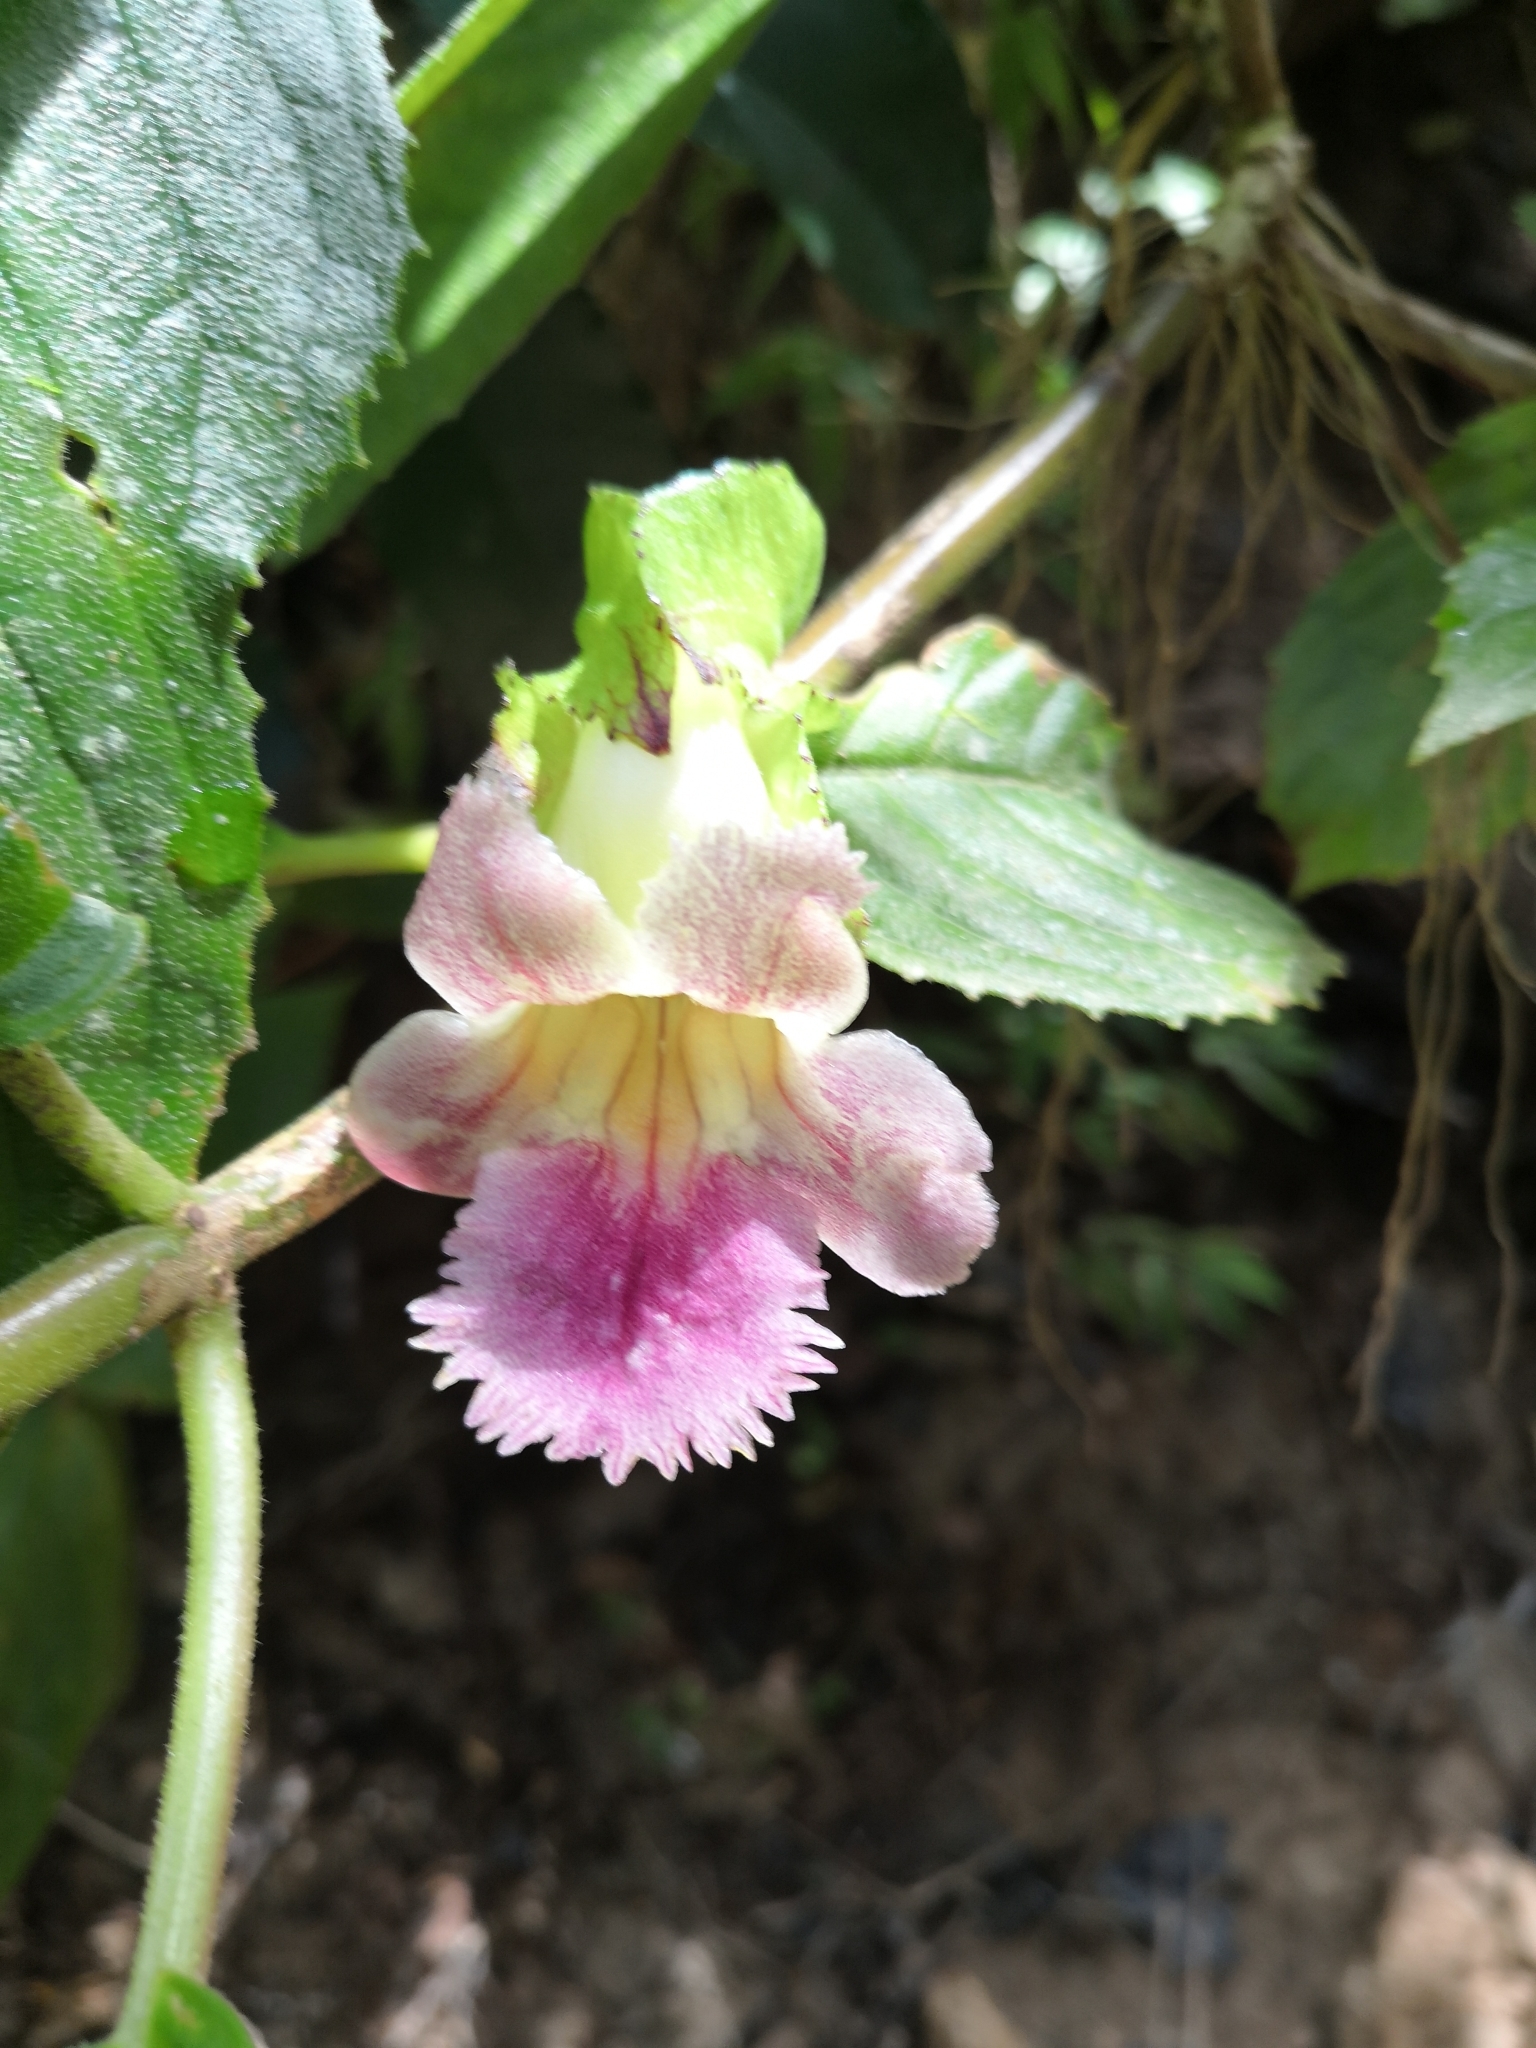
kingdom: Plantae
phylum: Tracheophyta
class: Magnoliopsida
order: Lamiales
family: Gesneriaceae
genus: Drymonia
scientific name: Drymonia serrulata
